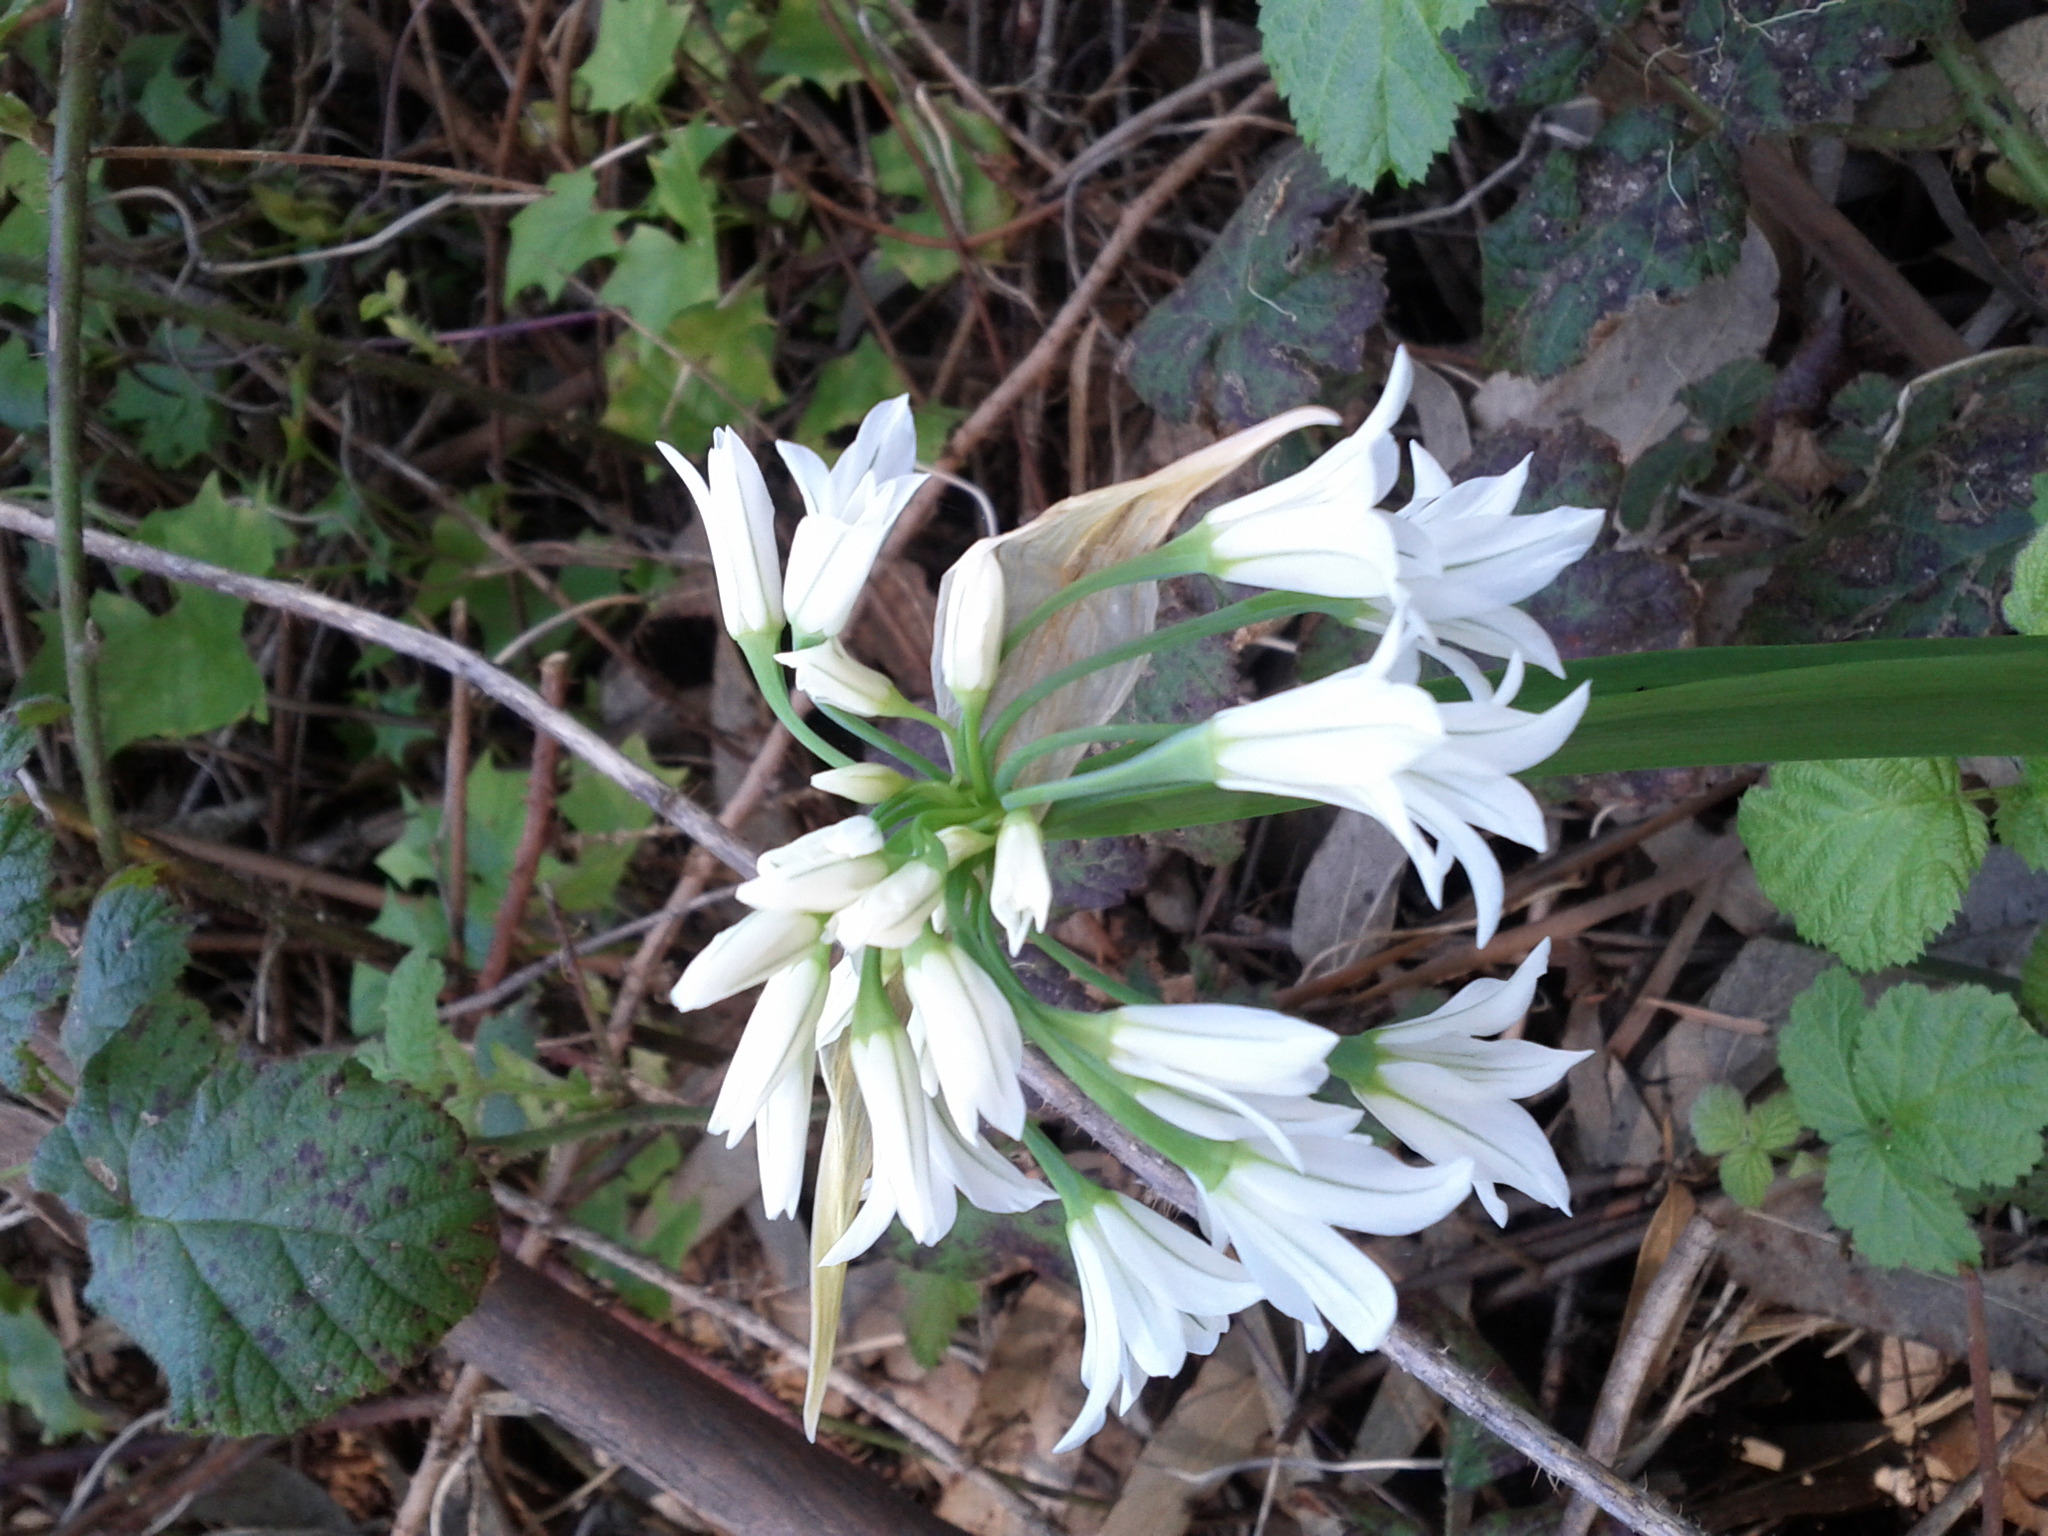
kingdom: Plantae
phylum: Tracheophyta
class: Liliopsida
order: Asparagales
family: Amaryllidaceae
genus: Allium
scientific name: Allium triquetrum
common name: Three-cornered garlic
